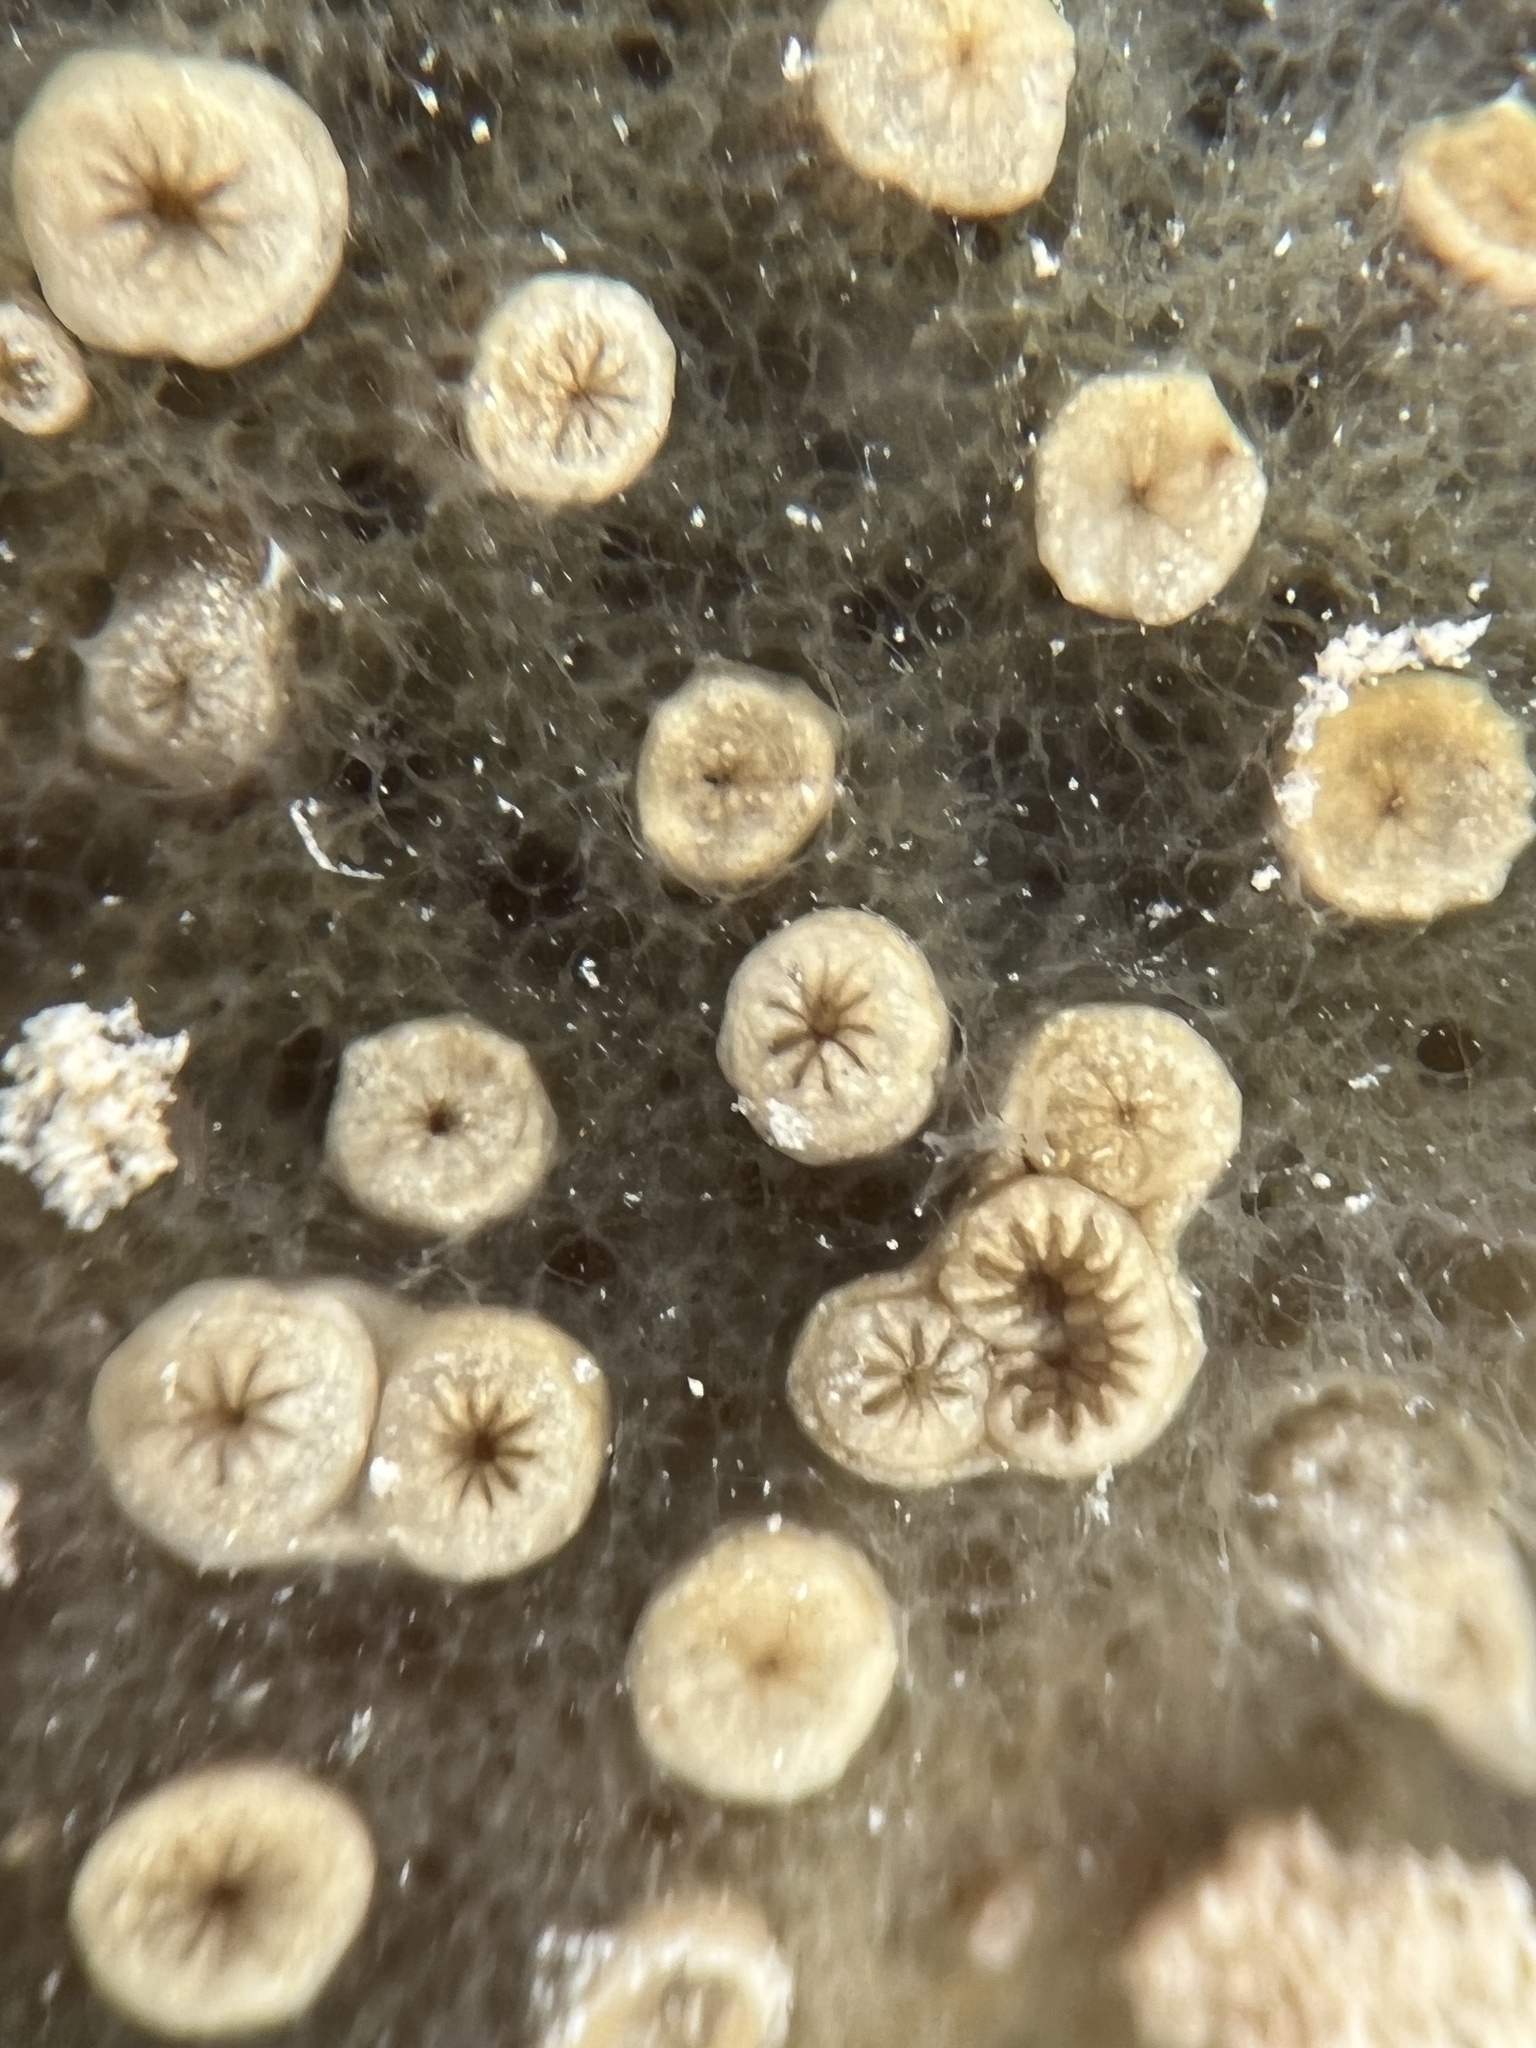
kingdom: Animalia
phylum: Cnidaria
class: Anthozoa
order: Zoantharia
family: Parazoanthidae
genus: Umimayanthus
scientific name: Umimayanthus parasiticus
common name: Sponge zoanthid
